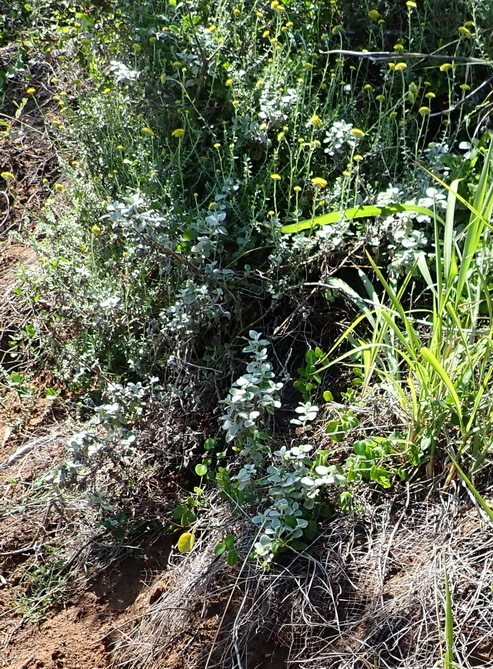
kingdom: Plantae
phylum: Tracheophyta
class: Magnoliopsida
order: Asterales
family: Asteraceae
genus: Helichrysum
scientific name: Helichrysum petiolare
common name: Licorice-plant
